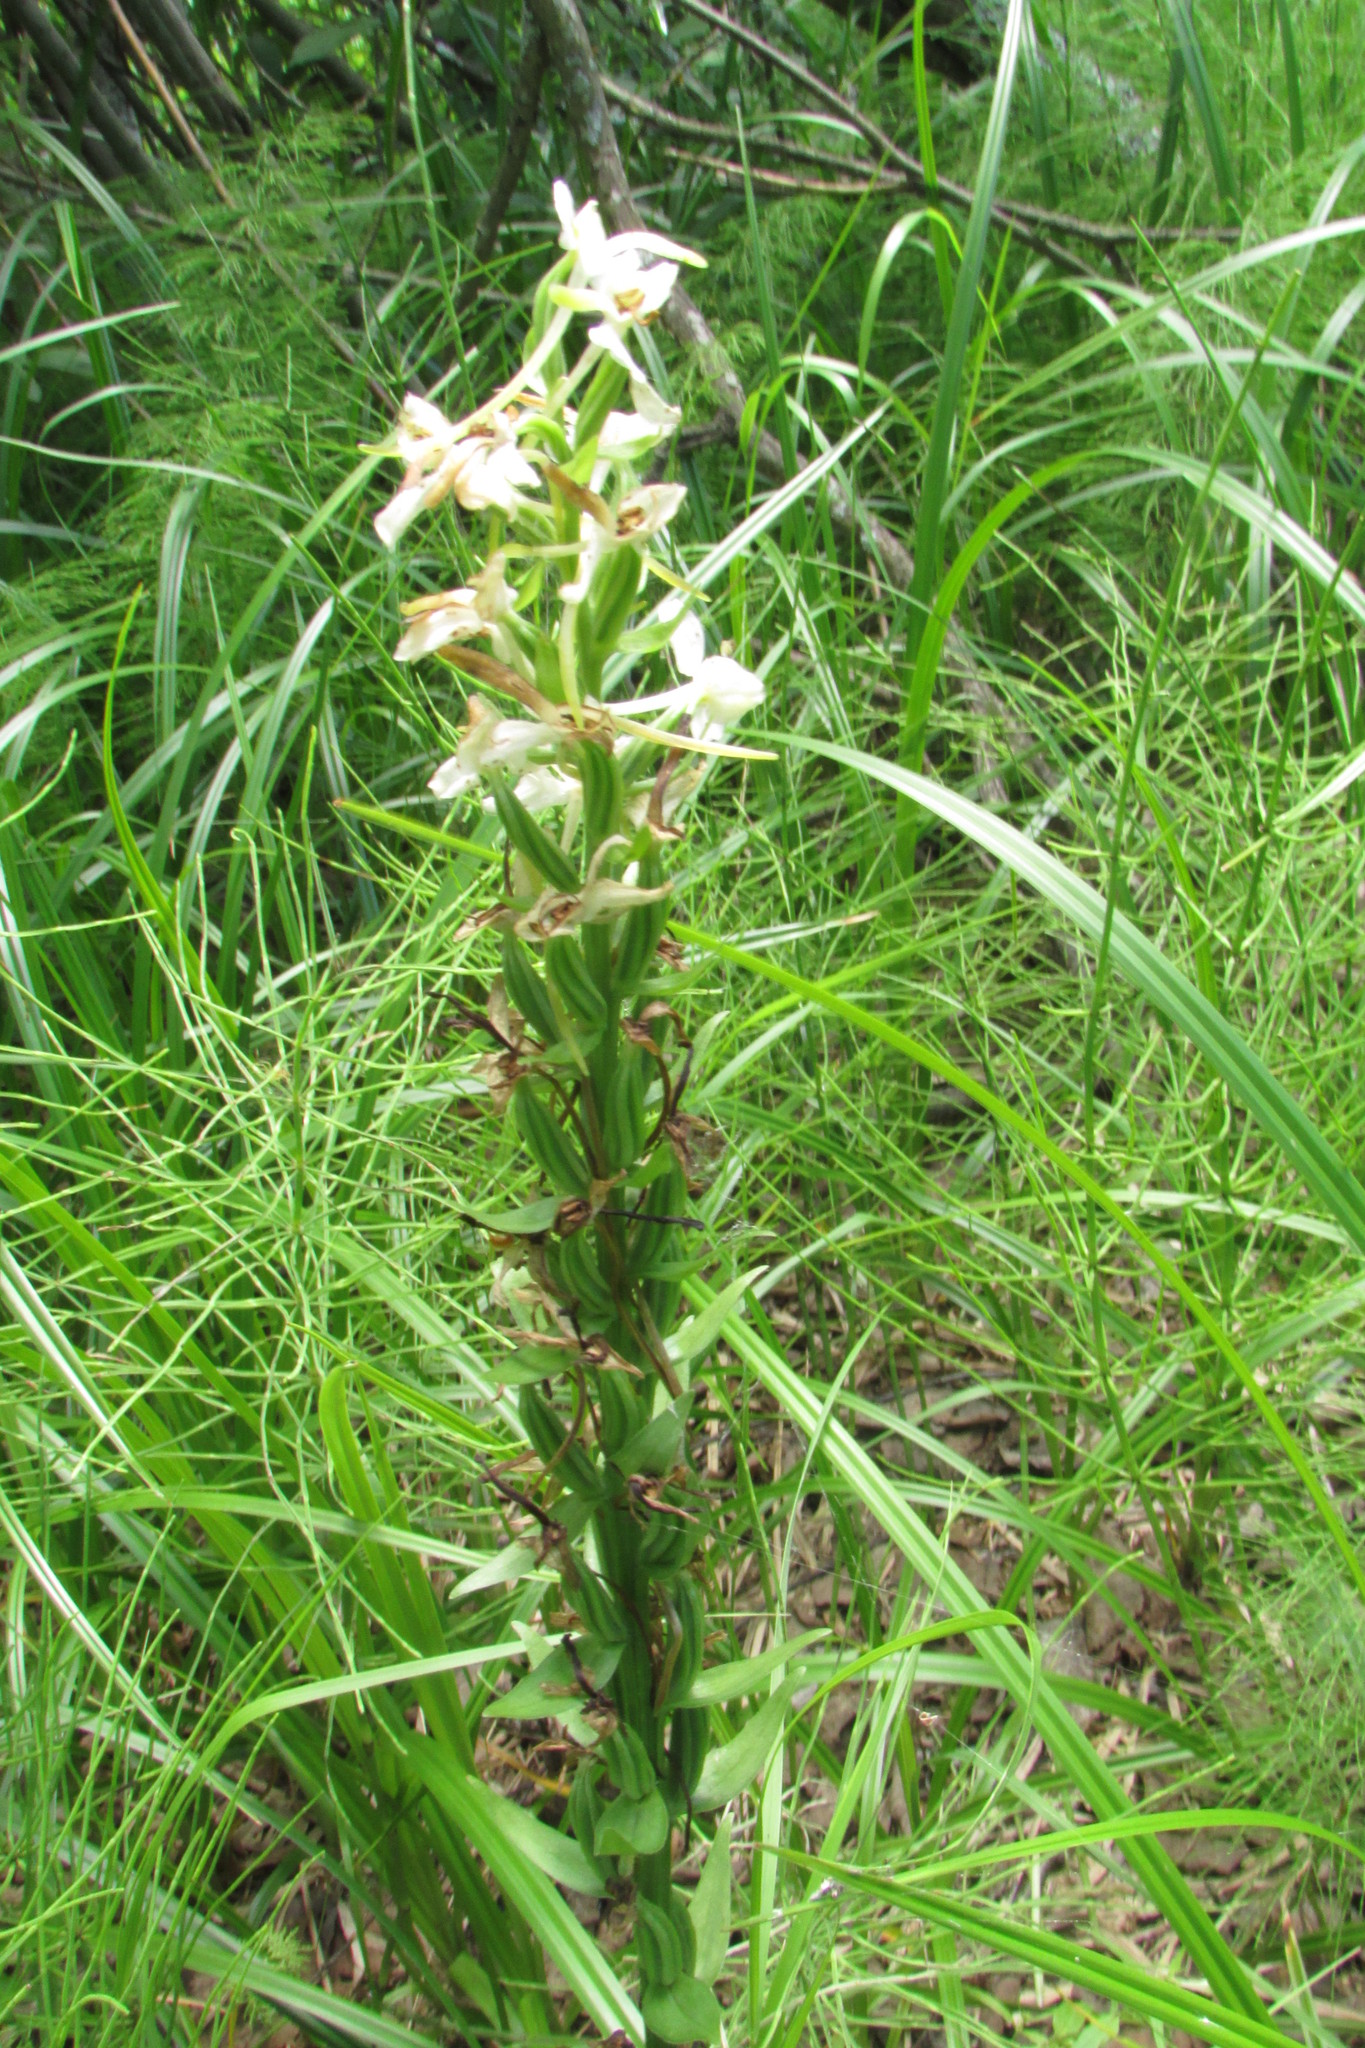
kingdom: Plantae
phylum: Tracheophyta
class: Liliopsida
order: Asparagales
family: Orchidaceae
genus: Platanthera
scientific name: Platanthera bifolia
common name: Lesser butterfly-orchid
